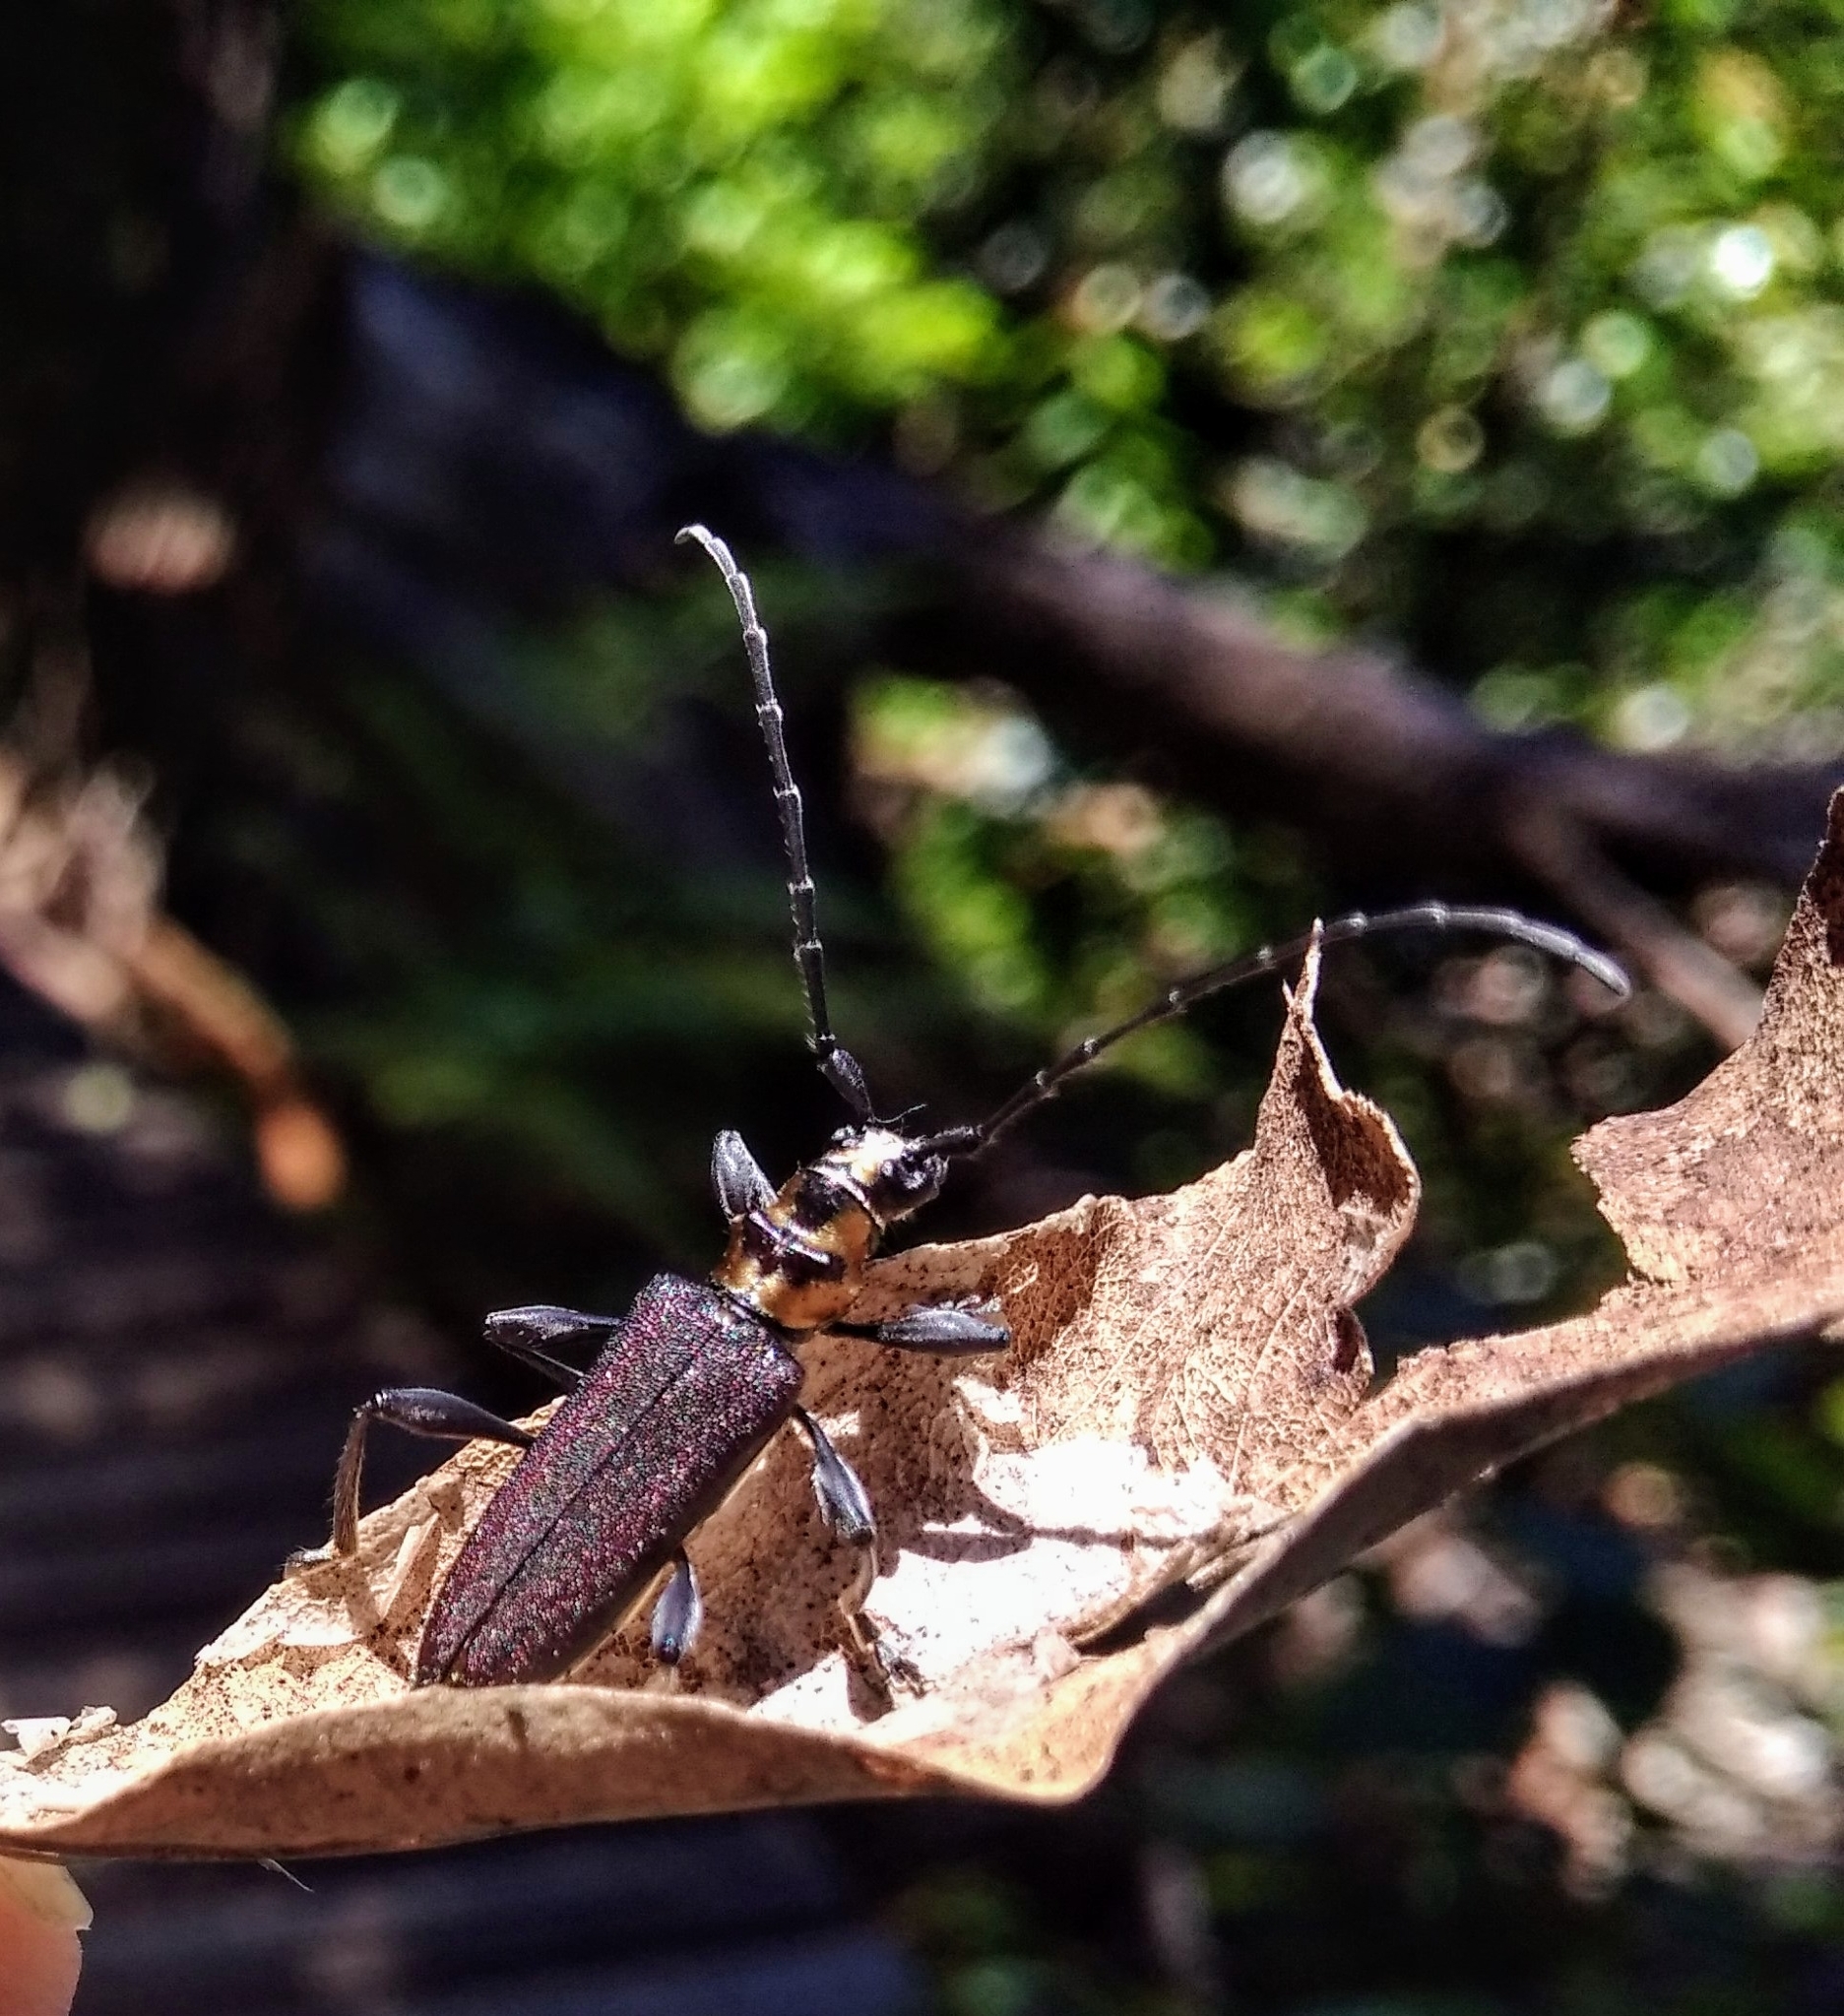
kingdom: Animalia
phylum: Arthropoda
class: Insecta
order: Coleoptera
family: Cerambycidae
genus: Ochimus
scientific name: Ochimus grobbelaarae
